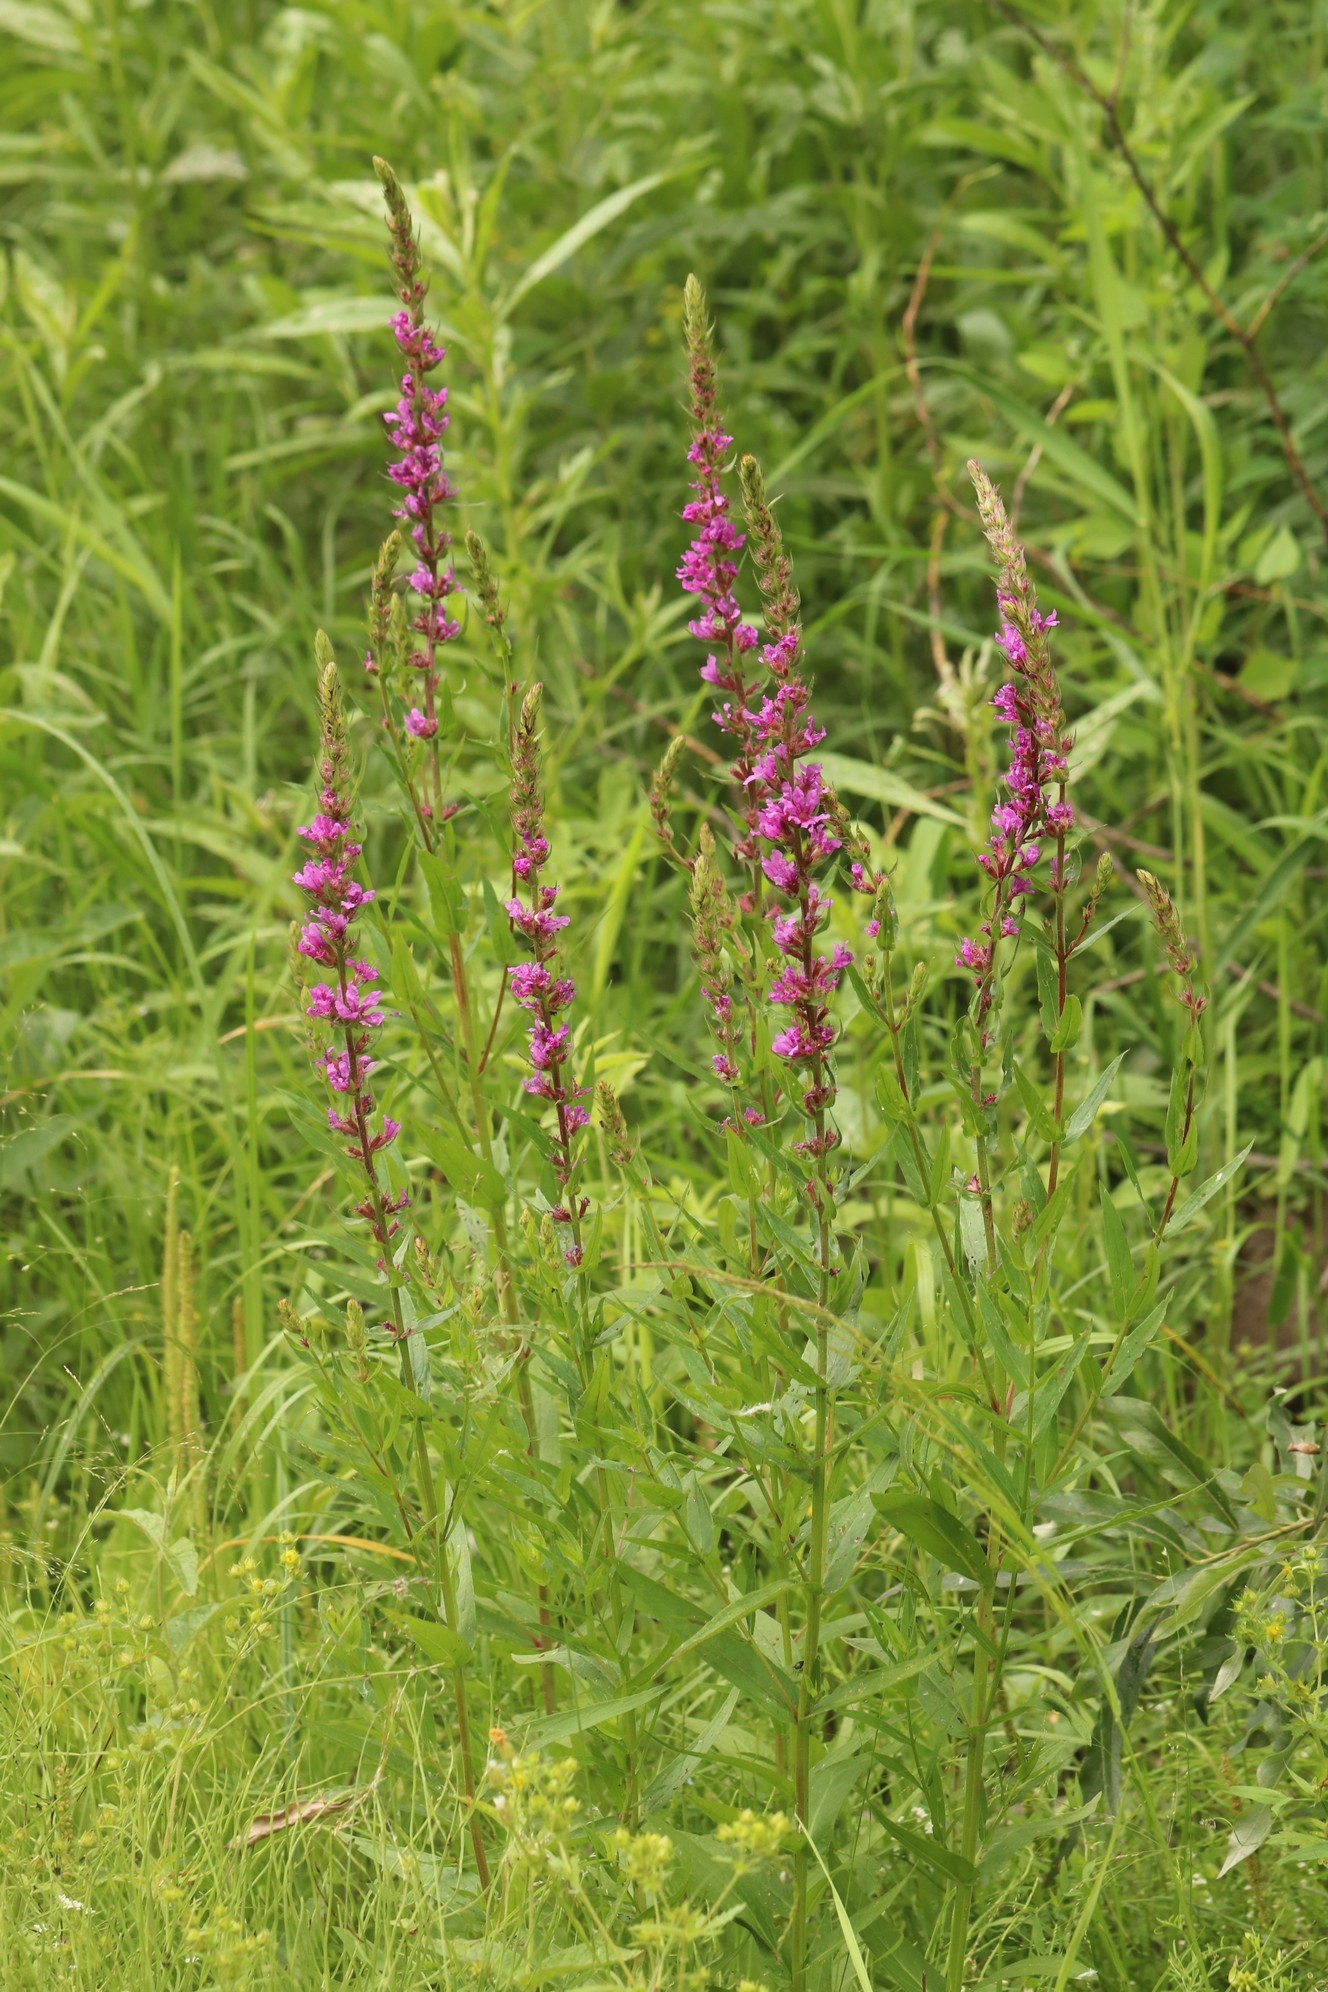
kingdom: Plantae
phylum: Tracheophyta
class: Magnoliopsida
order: Myrtales
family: Lythraceae
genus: Lythrum
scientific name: Lythrum salicaria
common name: Purple loosestrife
